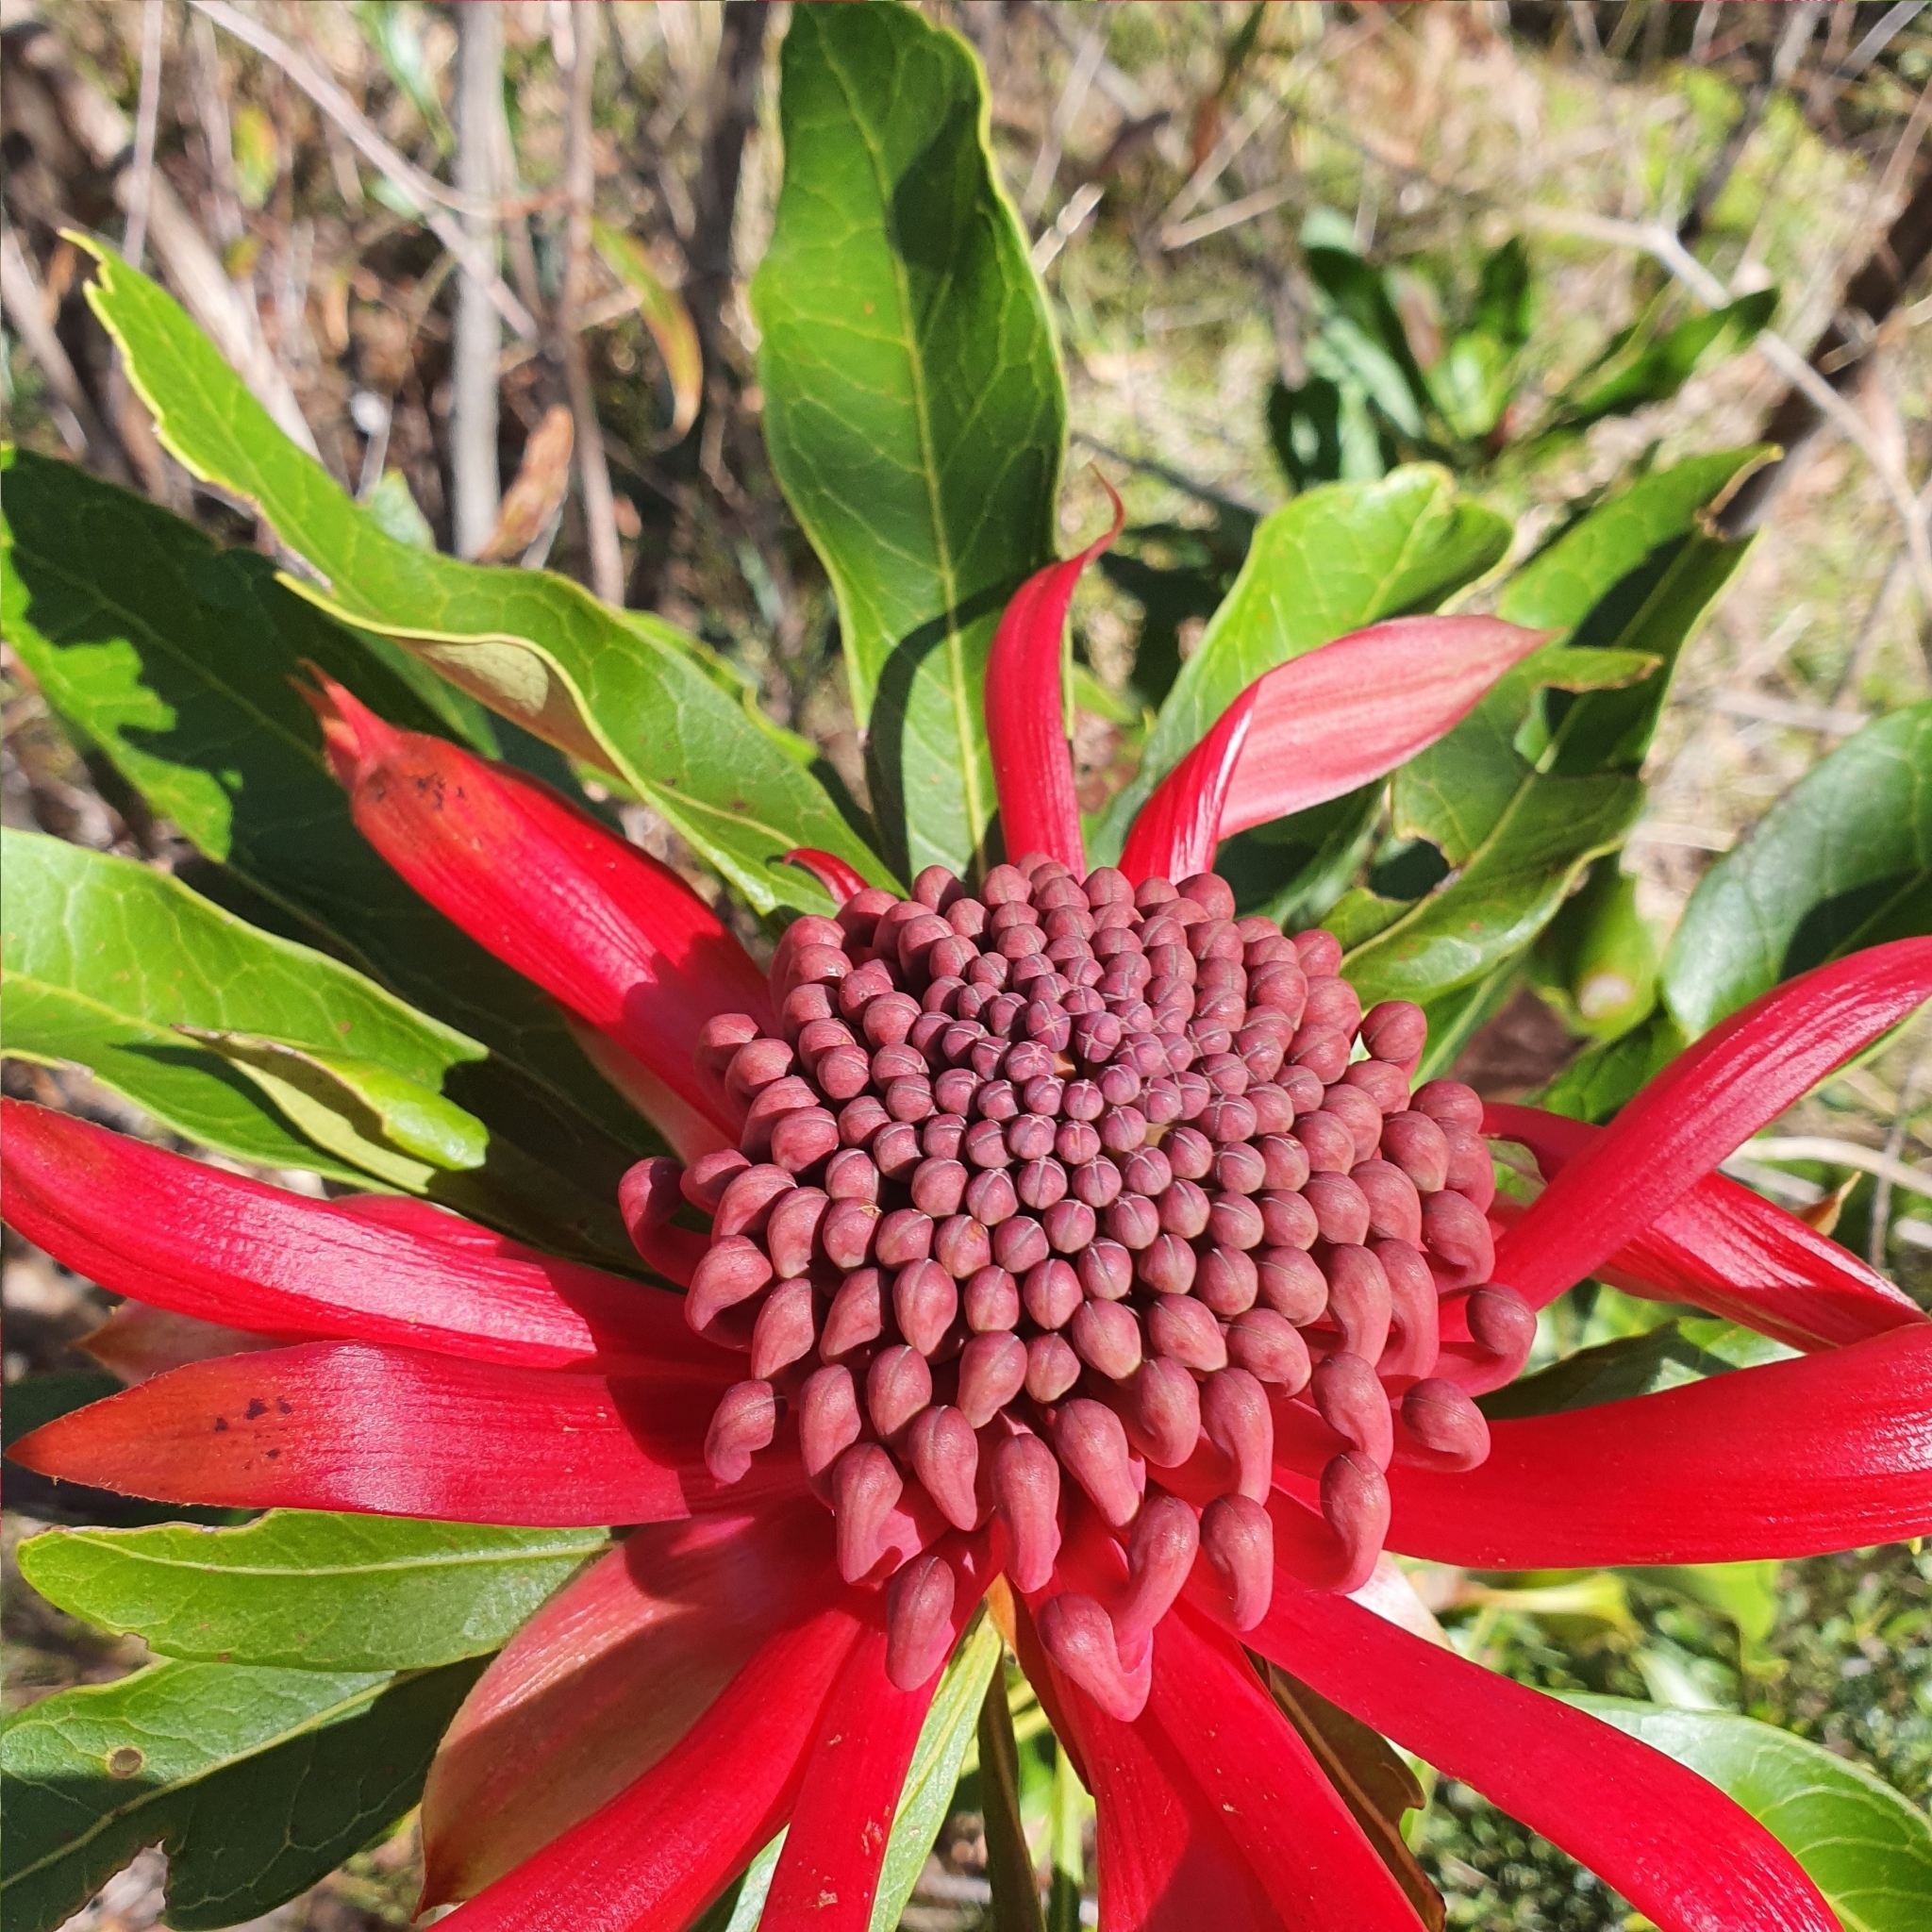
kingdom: Plantae
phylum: Tracheophyta
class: Magnoliopsida
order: Proteales
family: Proteaceae
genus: Telopea
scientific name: Telopea speciosissima
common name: New south wales waratah
